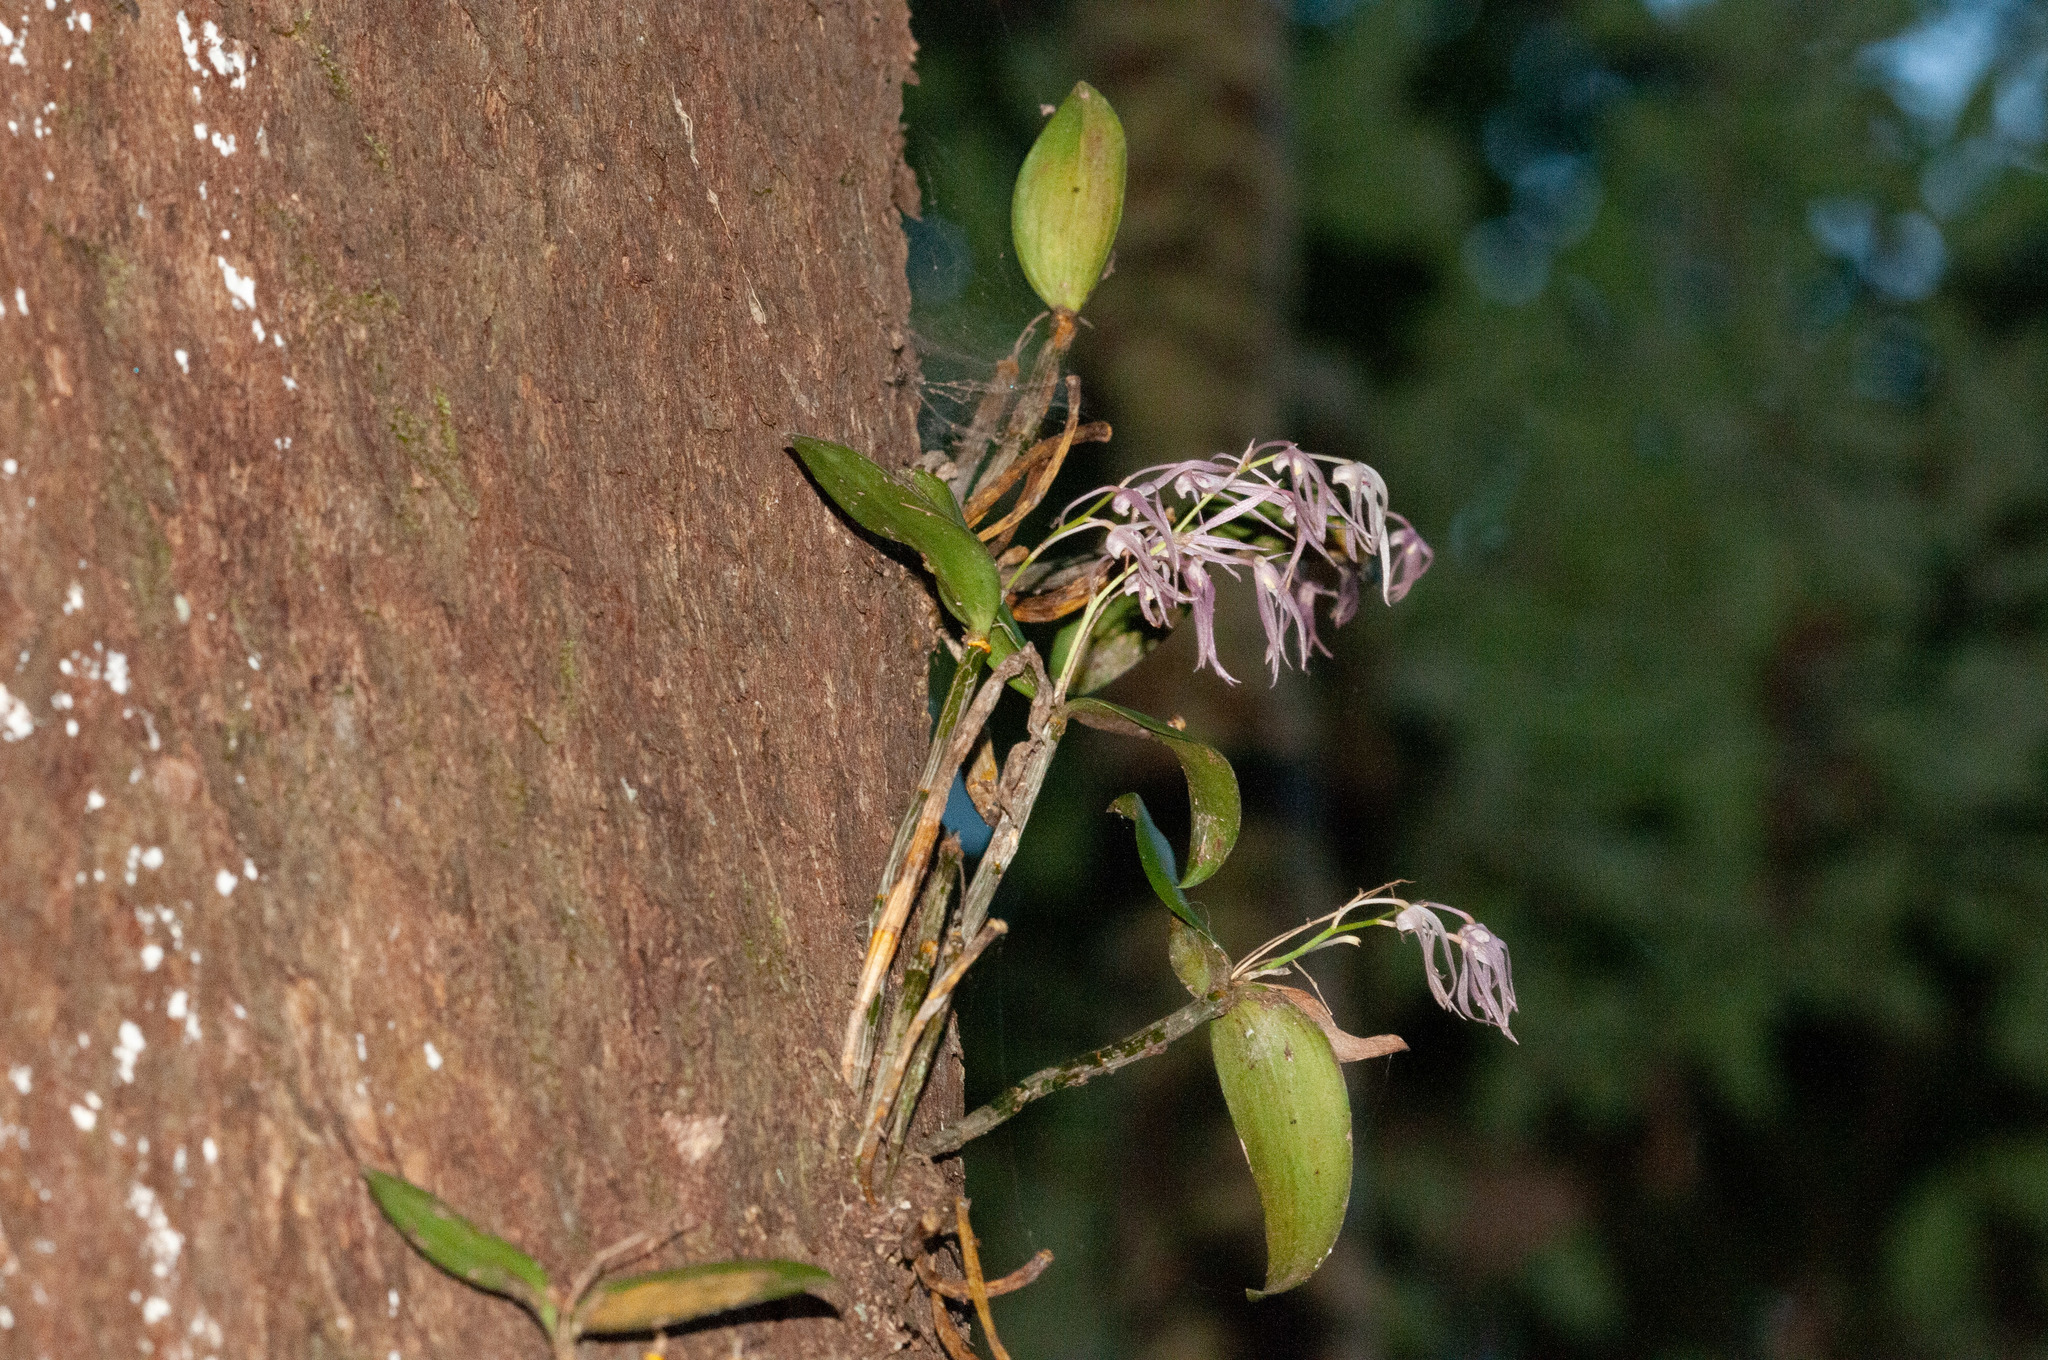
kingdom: Plantae
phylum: Tracheophyta
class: Liliopsida
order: Asparagales
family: Orchidaceae
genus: Dendrobium
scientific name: Dendrobium aemulum
